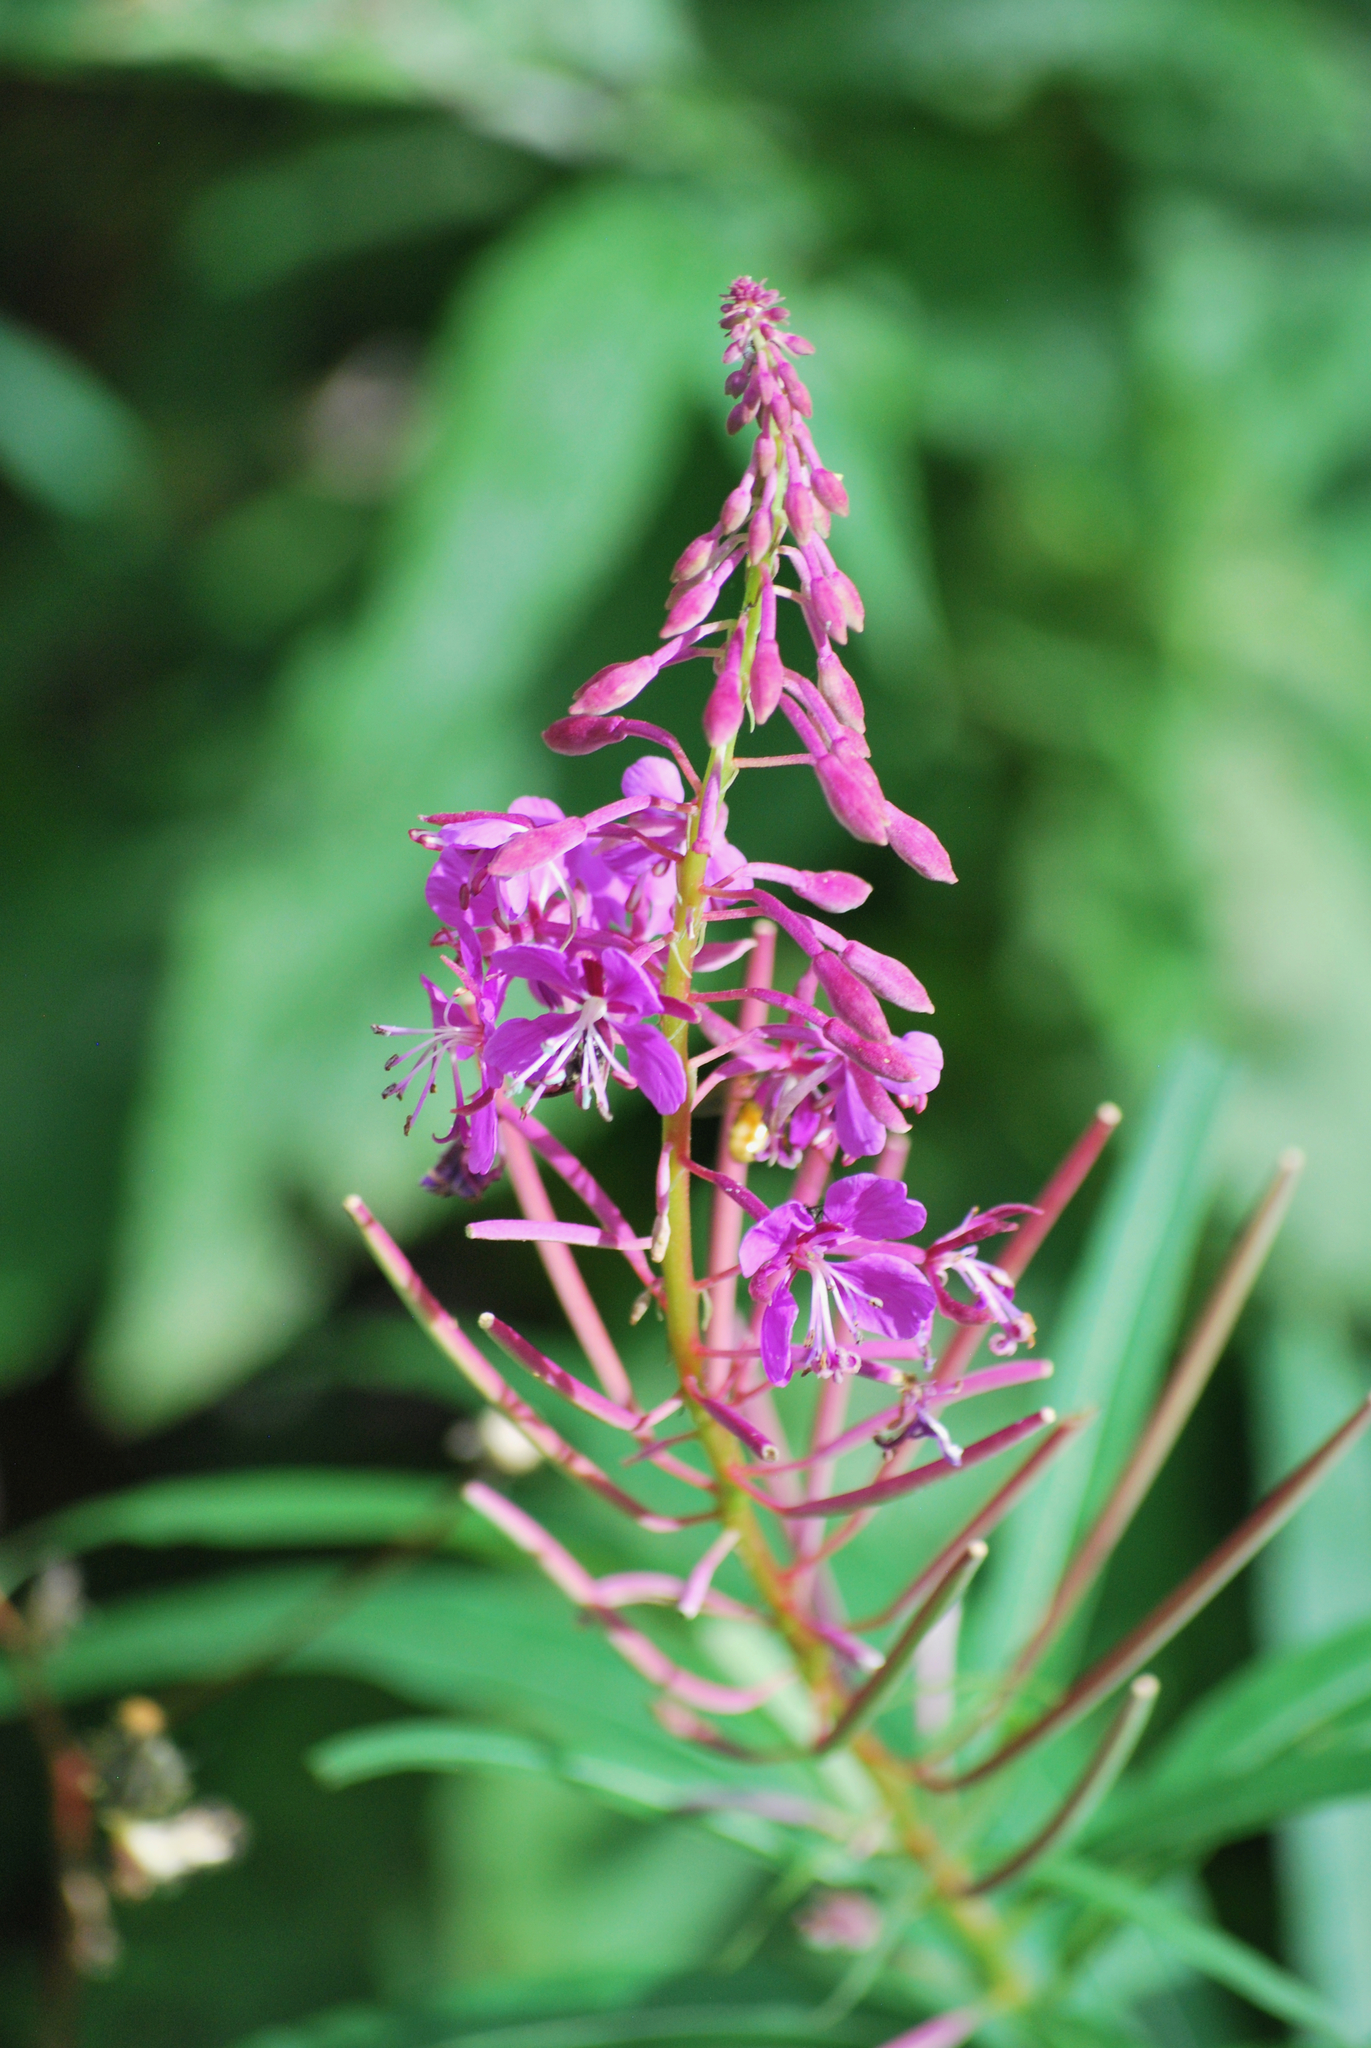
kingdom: Plantae
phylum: Tracheophyta
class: Magnoliopsida
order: Myrtales
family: Onagraceae
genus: Chamaenerion
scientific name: Chamaenerion angustifolium
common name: Fireweed
